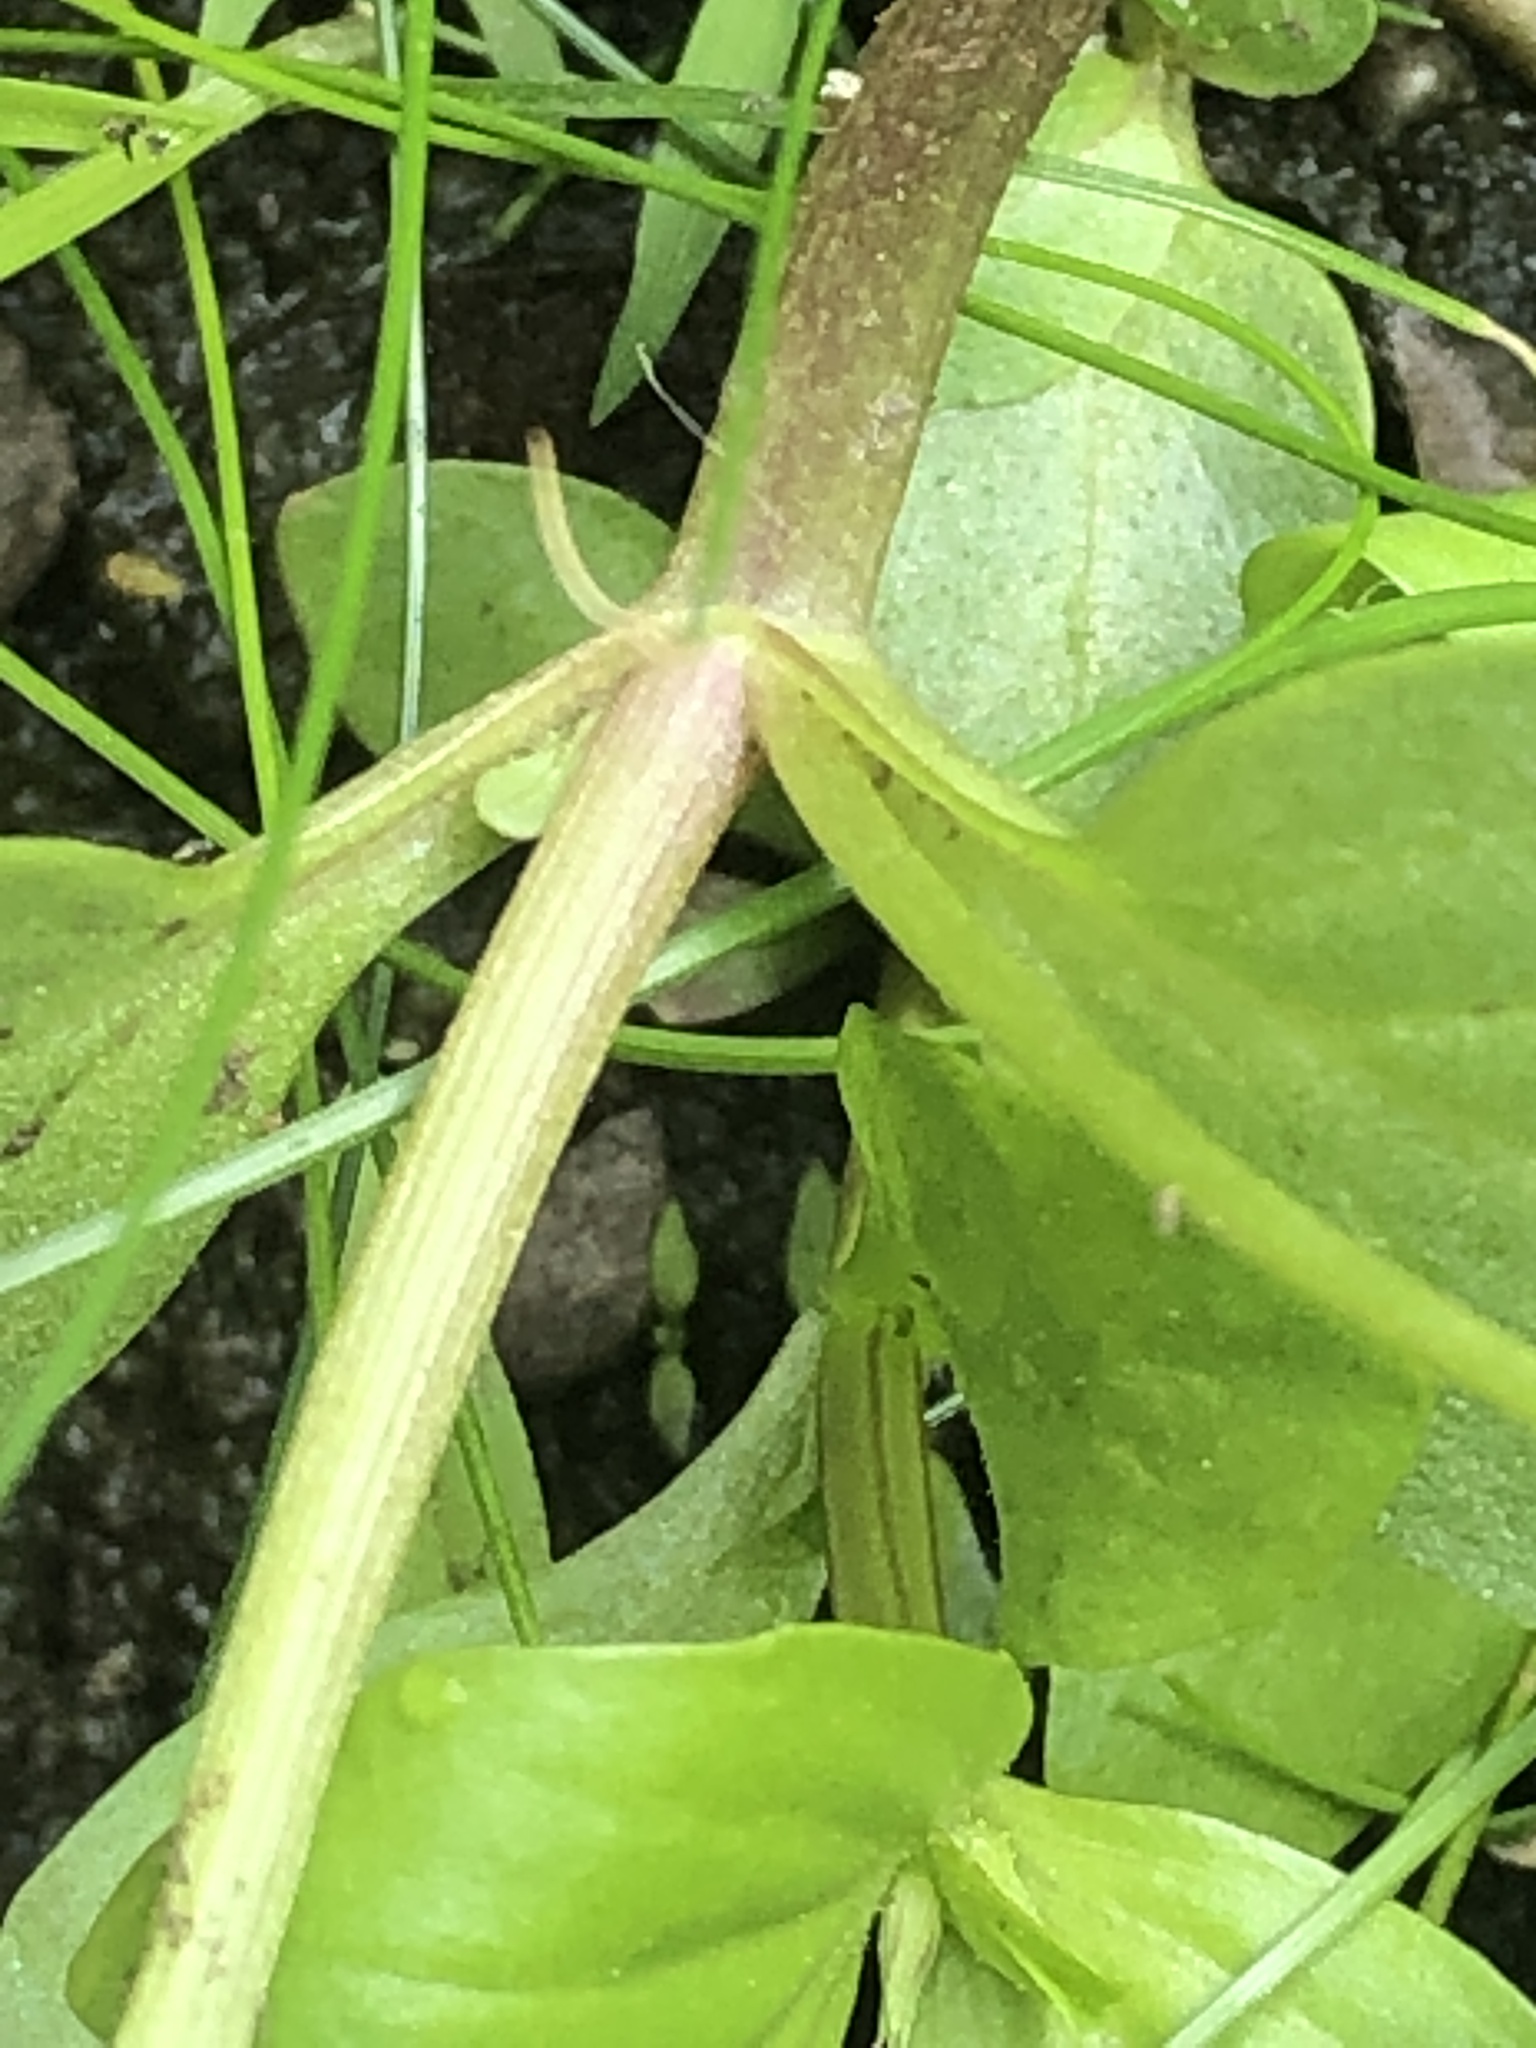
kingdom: Plantae
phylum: Tracheophyta
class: Magnoliopsida
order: Lamiales
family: Plantaginaceae
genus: Veronica
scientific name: Veronica anagallis-aquatica
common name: Water speedwell
